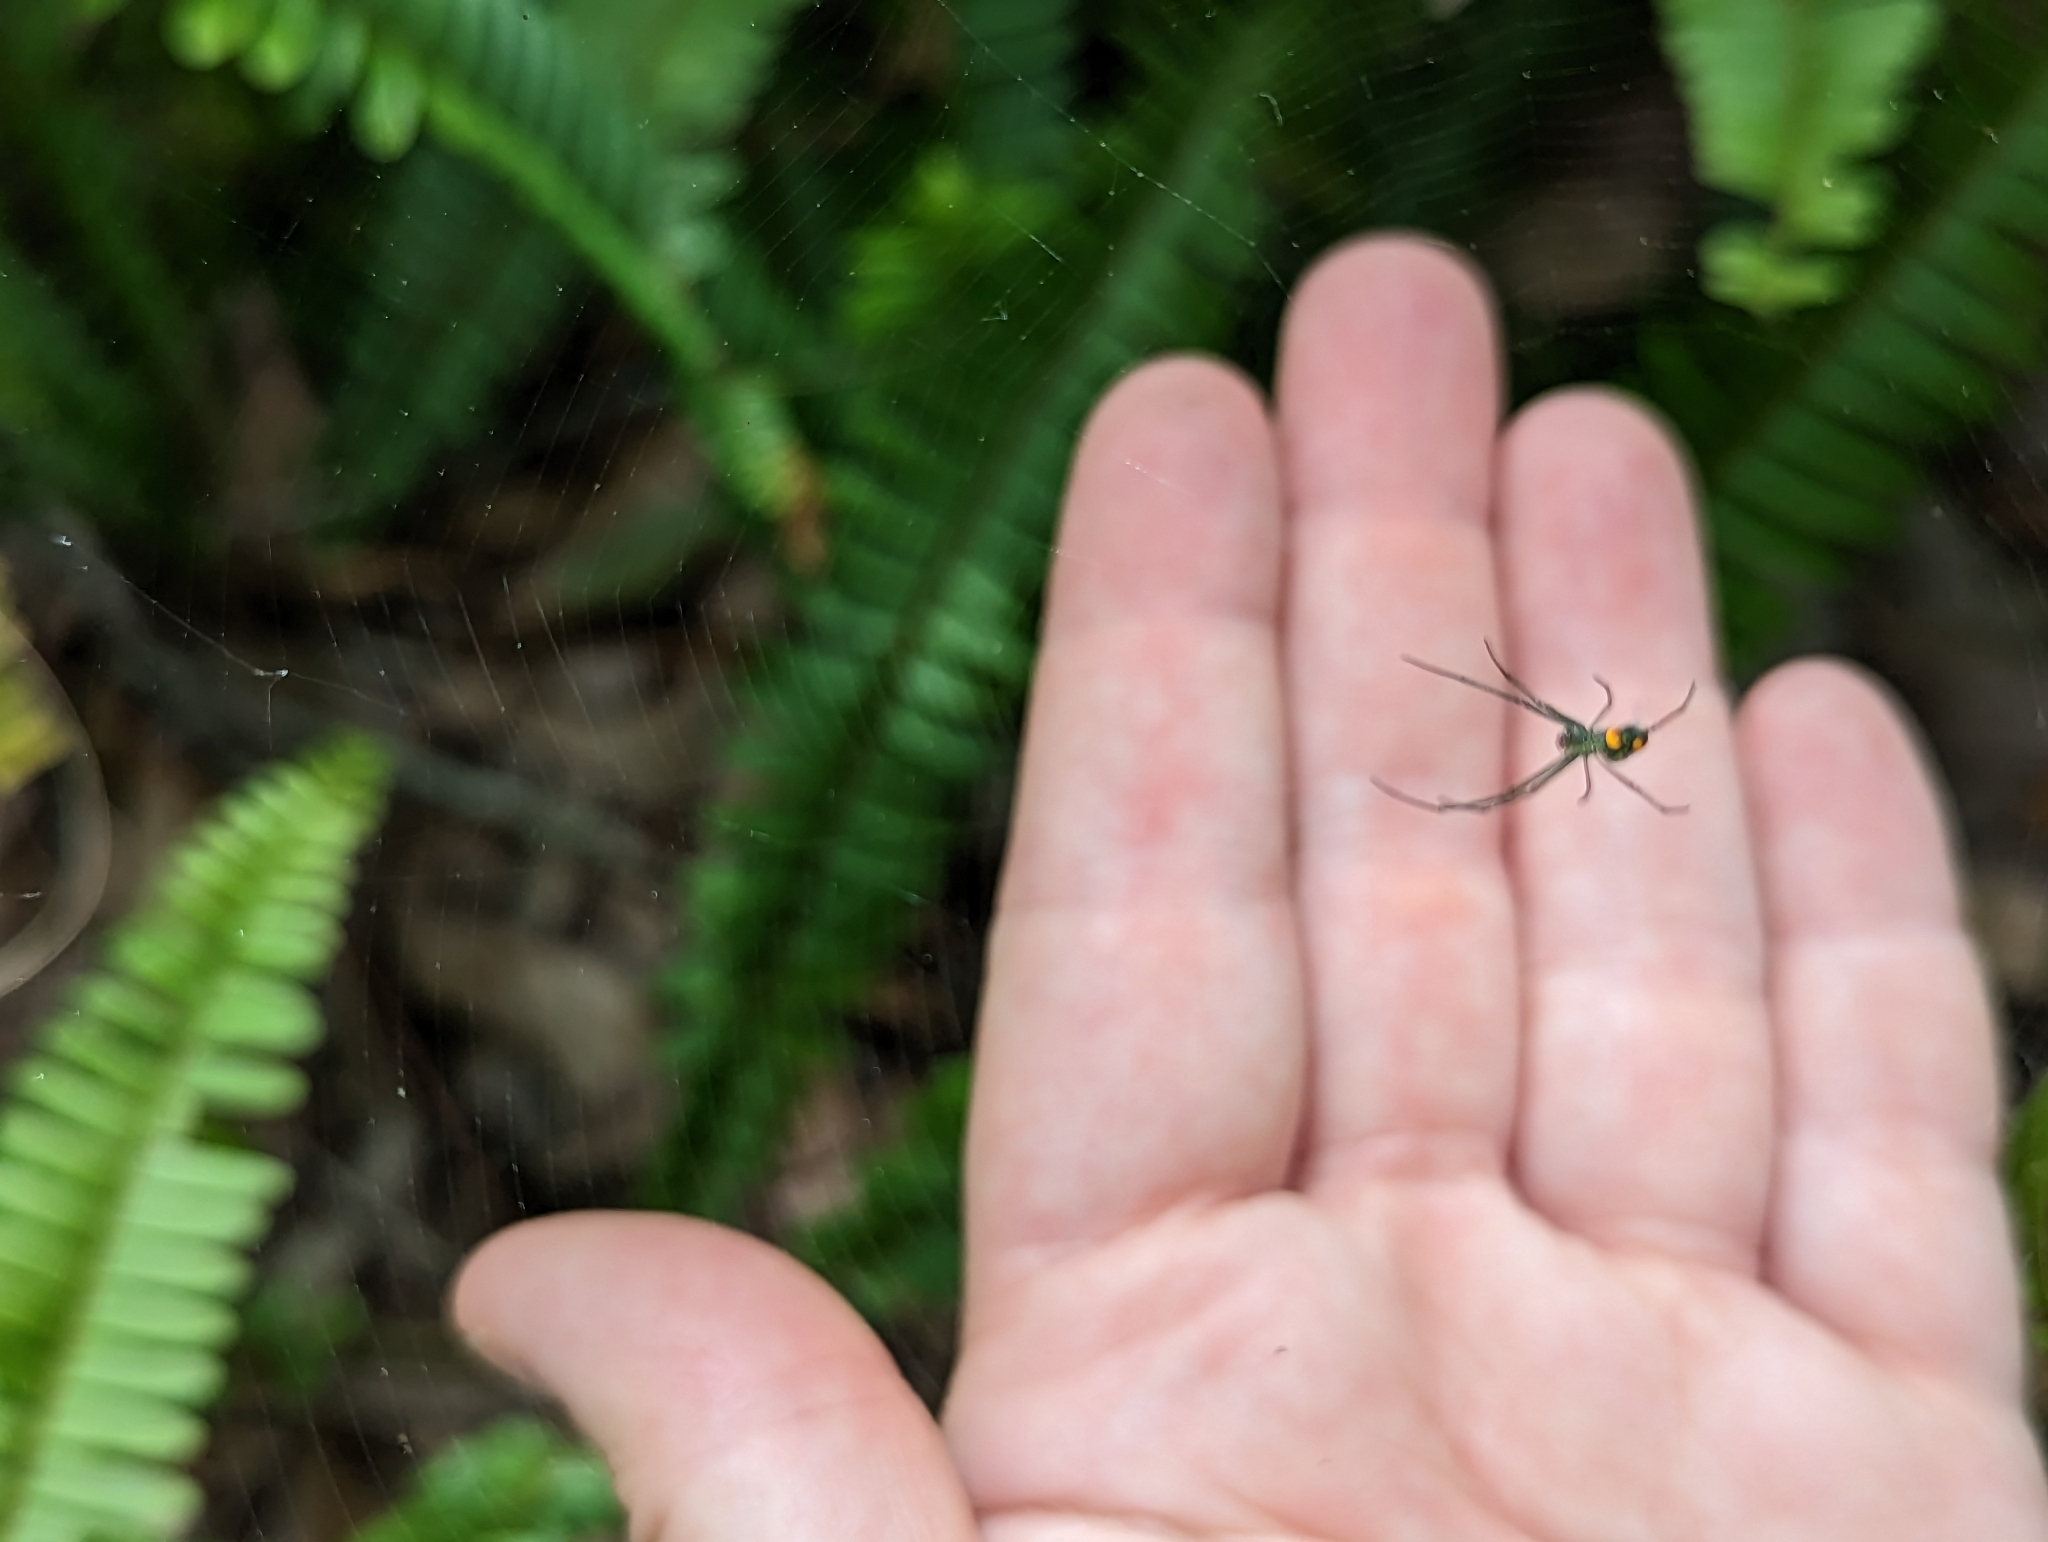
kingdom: Animalia
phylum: Arthropoda
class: Arachnida
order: Araneae
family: Tetragnathidae
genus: Leucauge
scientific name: Leucauge argyrobapta
